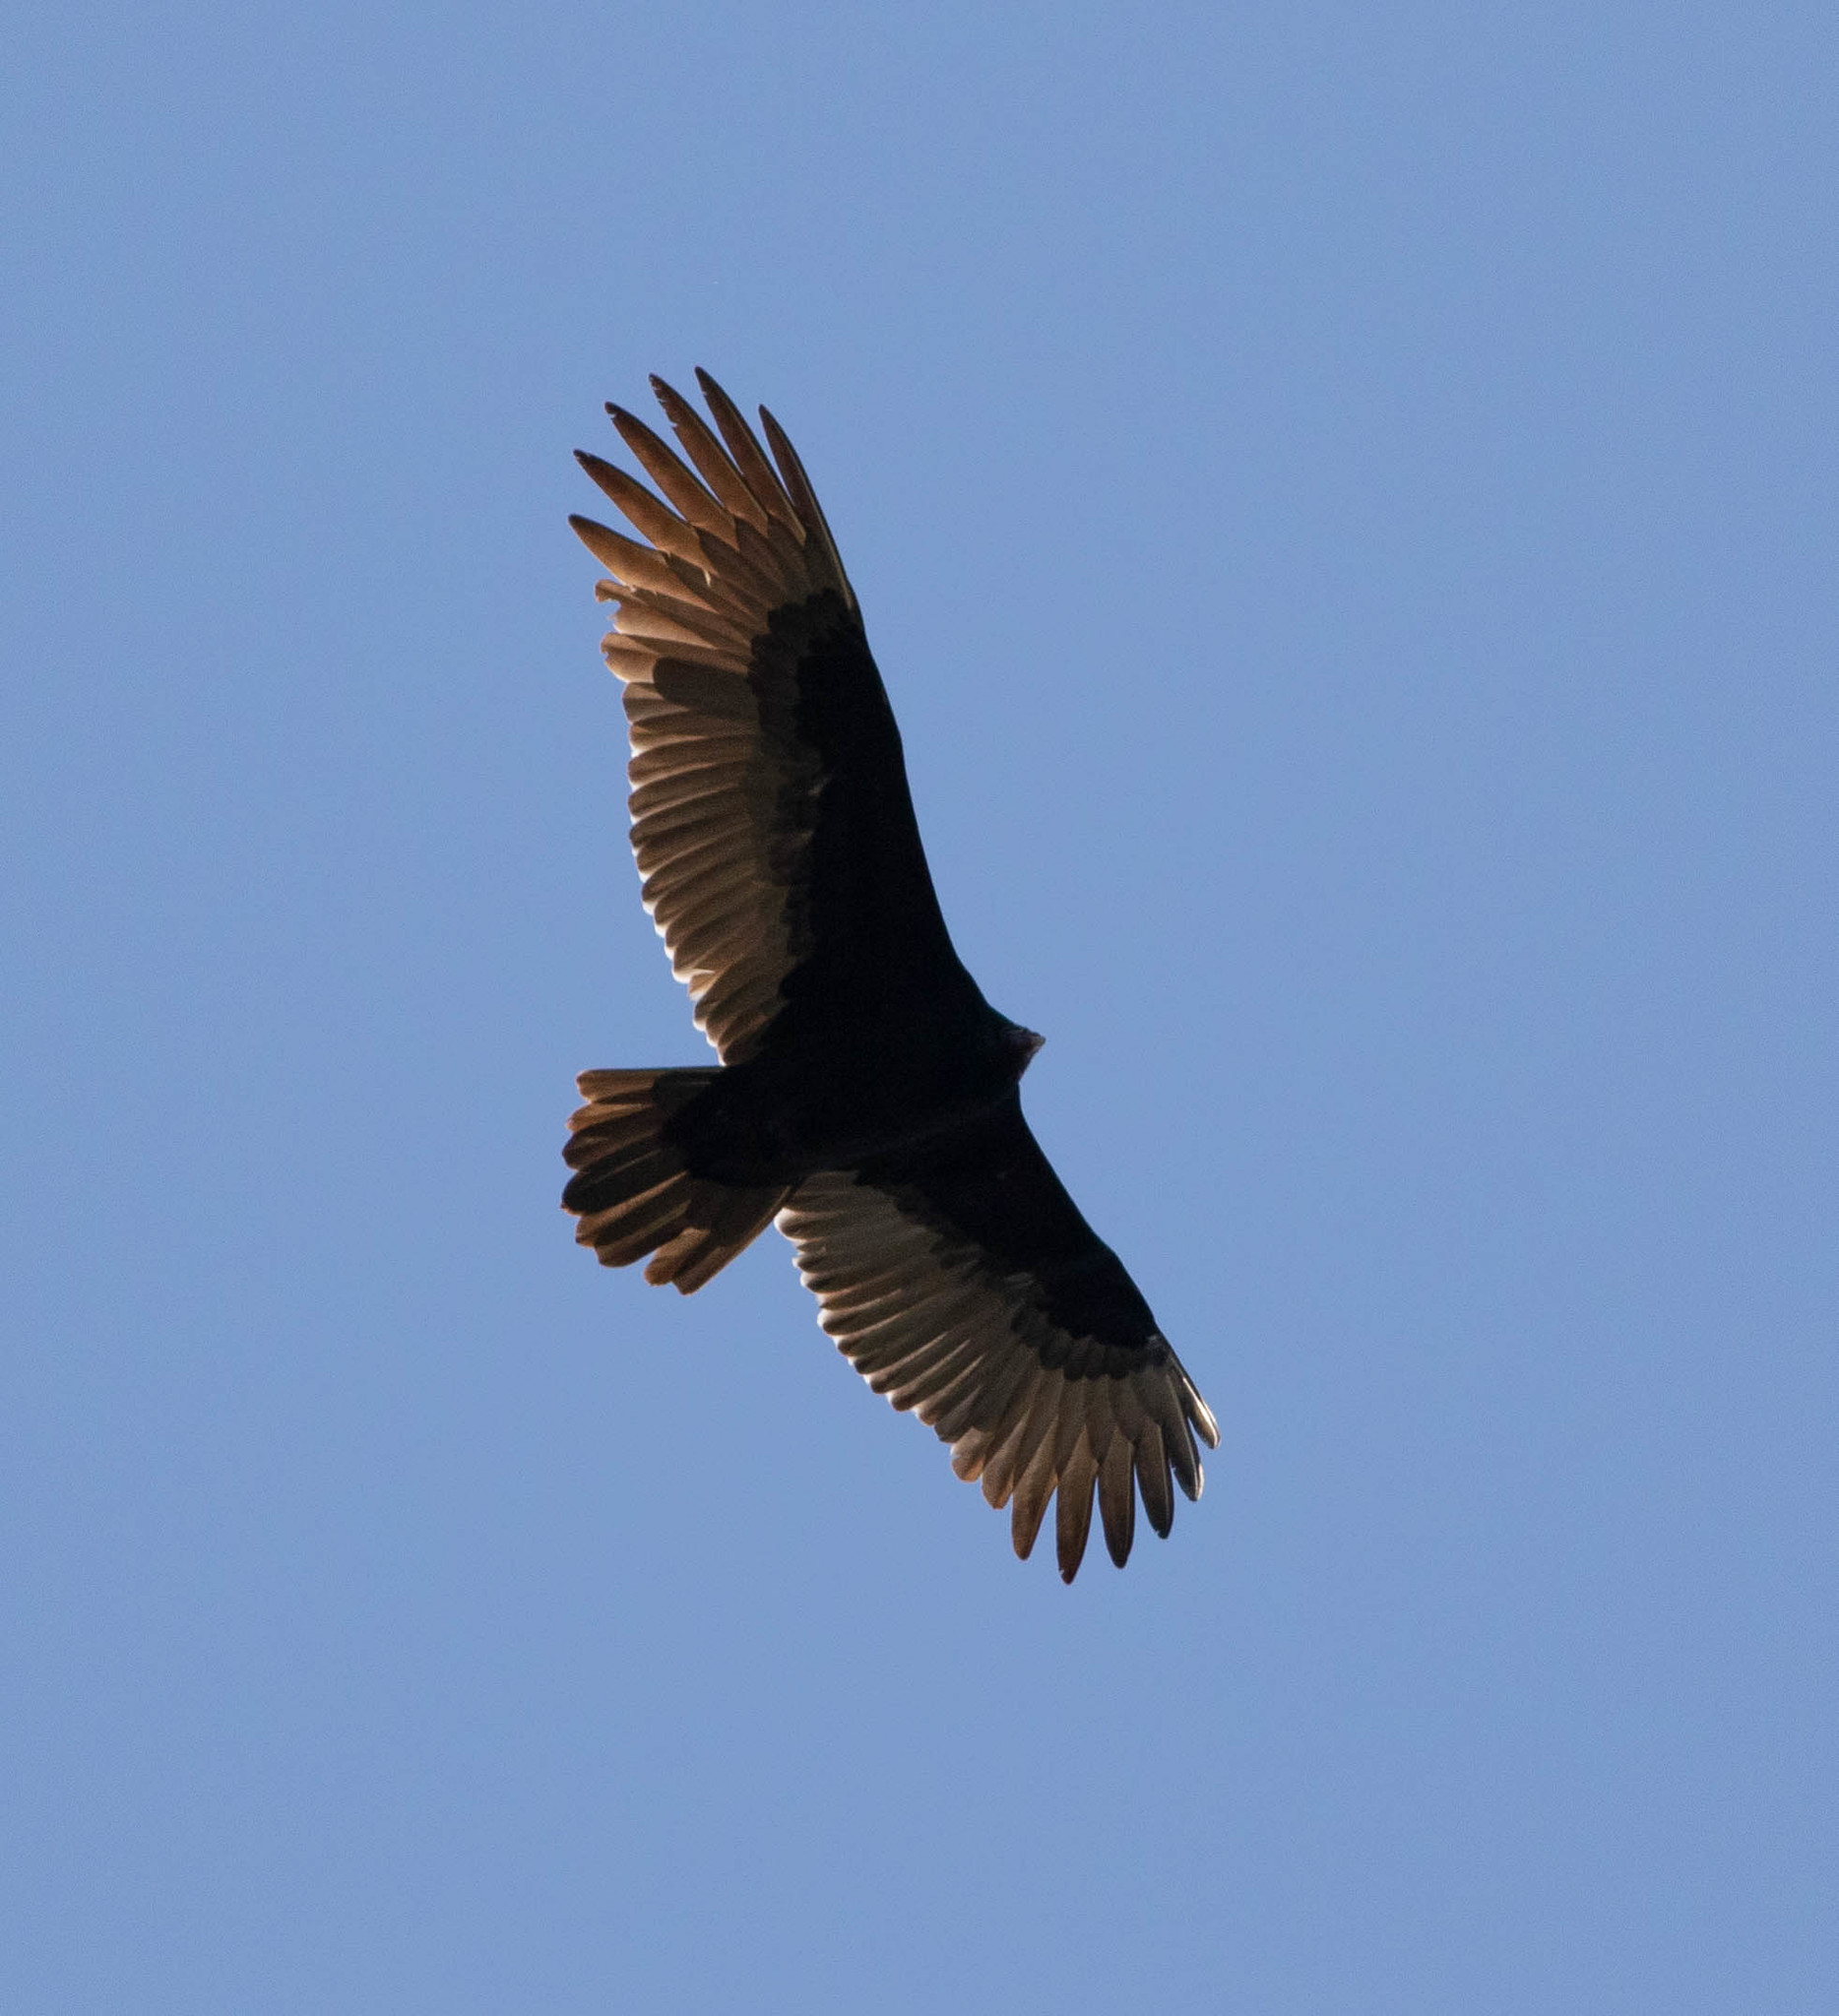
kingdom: Animalia
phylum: Chordata
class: Aves
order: Accipitriformes
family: Cathartidae
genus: Cathartes
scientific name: Cathartes aura
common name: Turkey vulture
